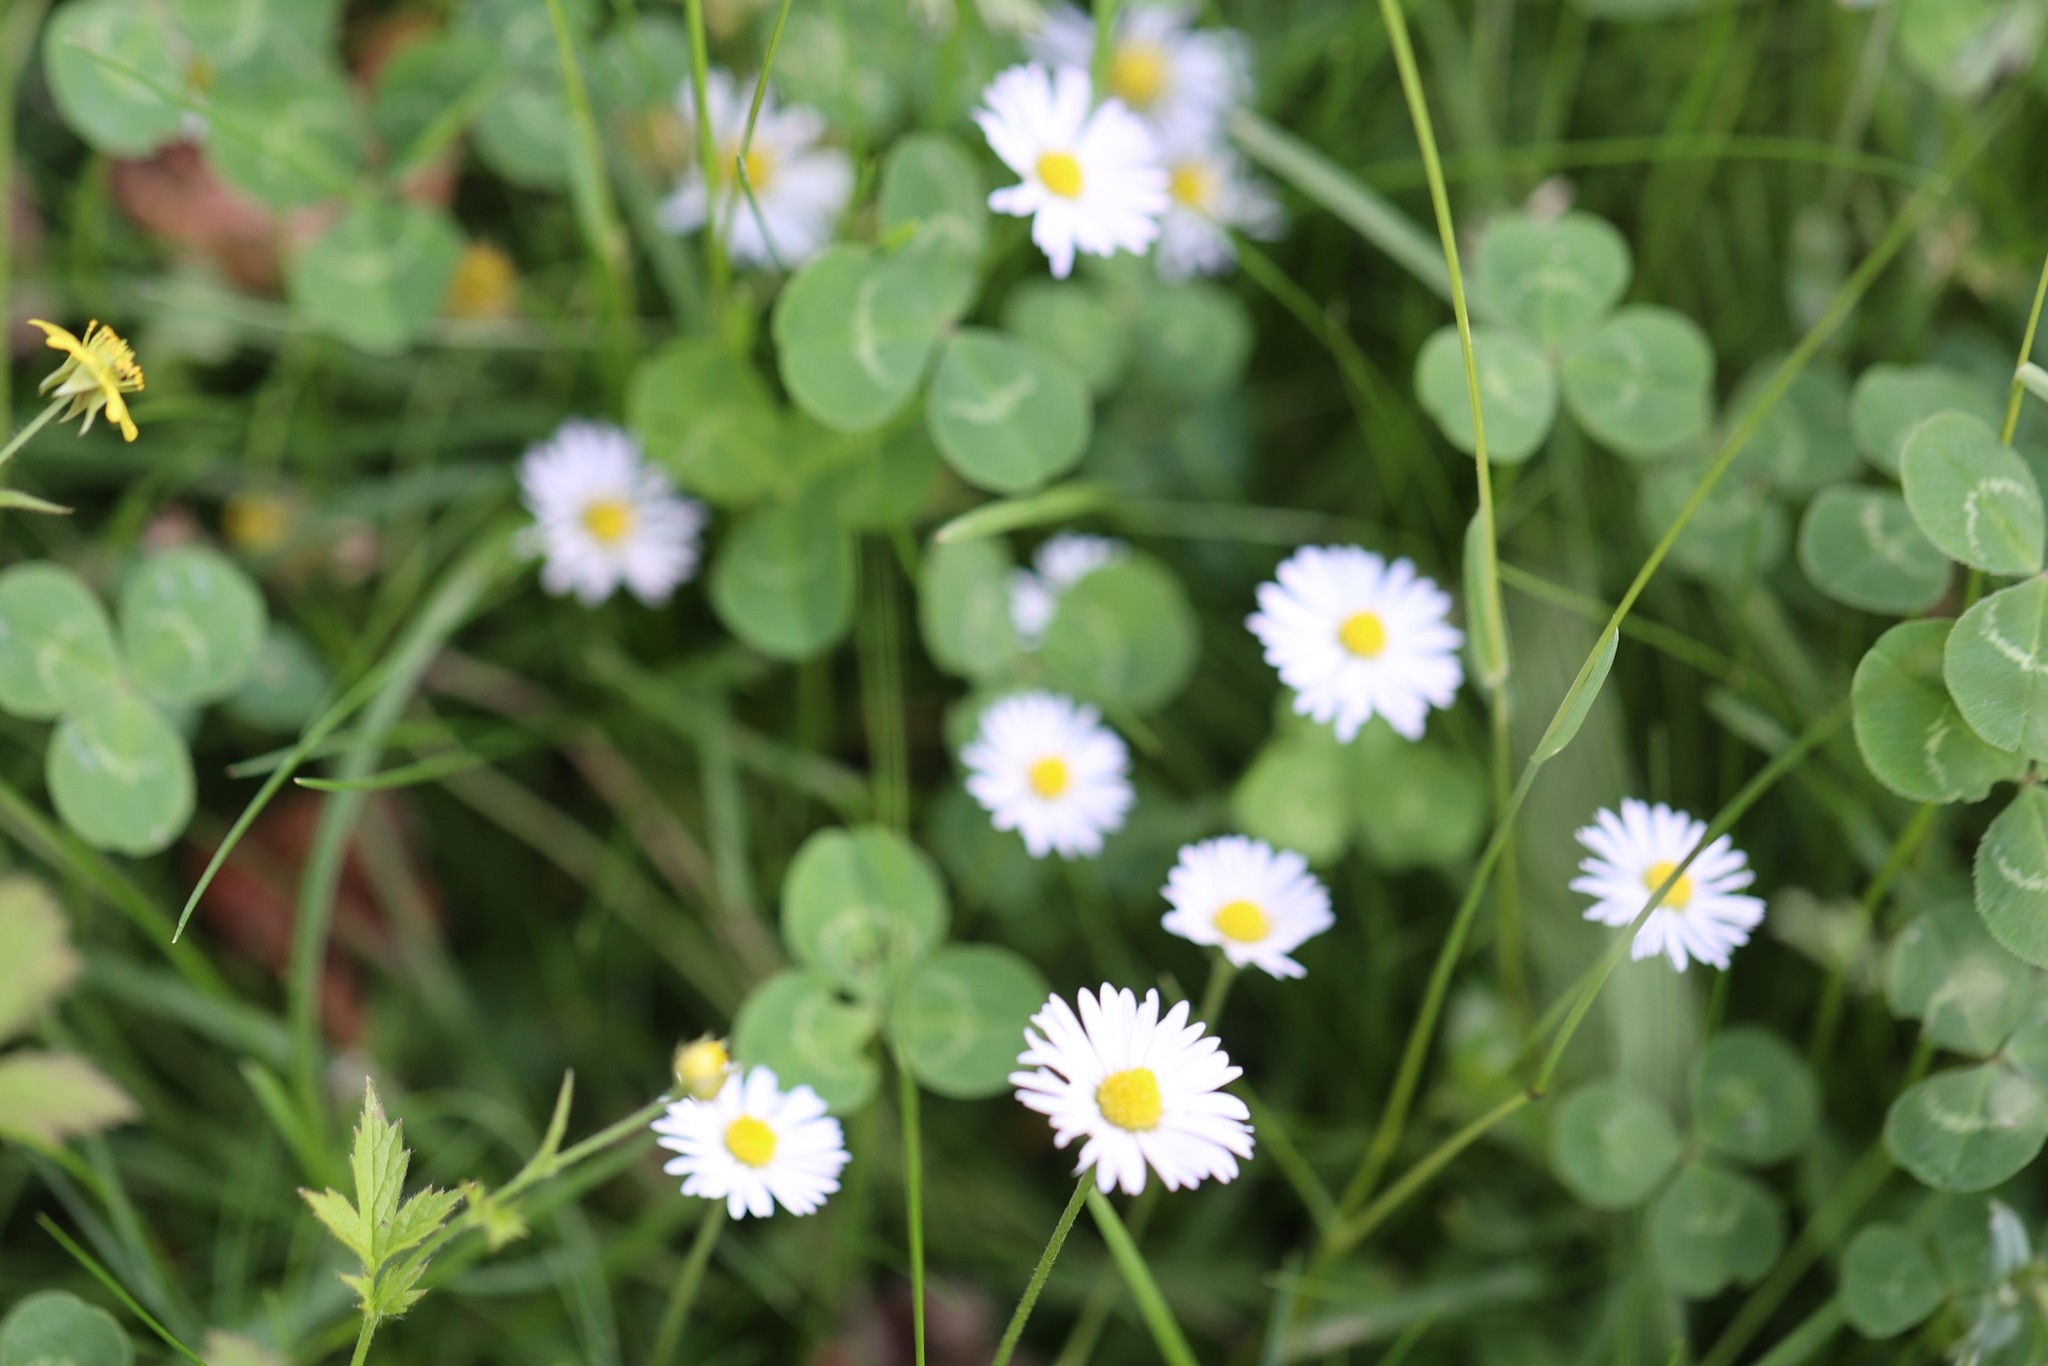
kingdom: Plantae
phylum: Tracheophyta
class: Magnoliopsida
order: Asterales
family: Asteraceae
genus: Bellis
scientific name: Bellis perennis
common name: Lawndaisy
